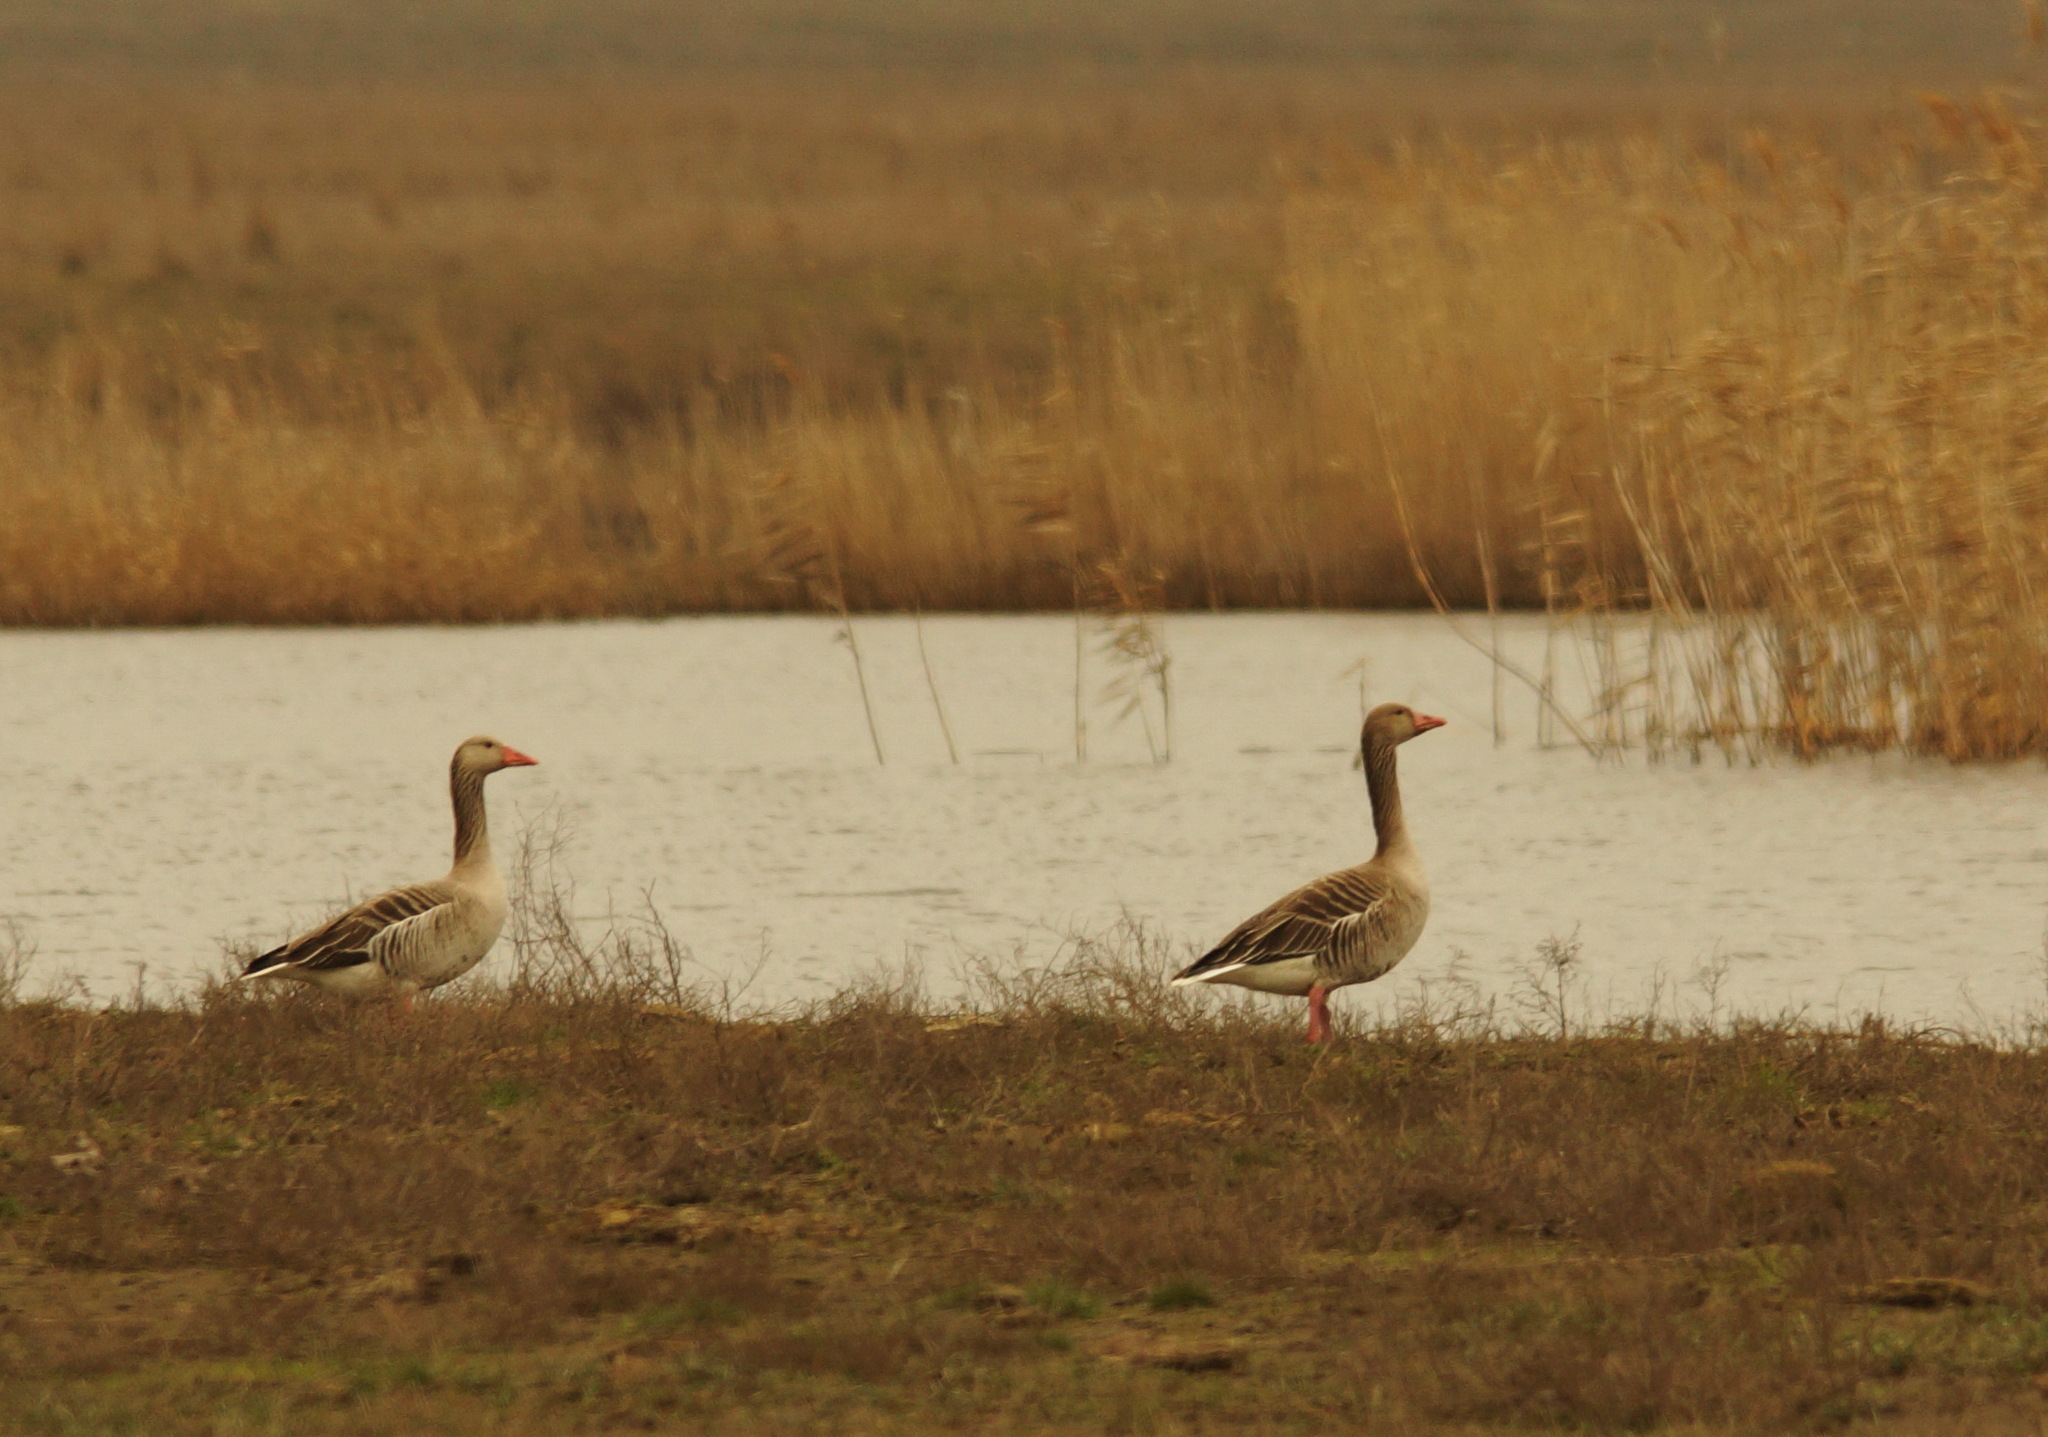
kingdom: Animalia
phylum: Chordata
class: Aves
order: Anseriformes
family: Anatidae
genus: Anser
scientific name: Anser anser
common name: Greylag goose
